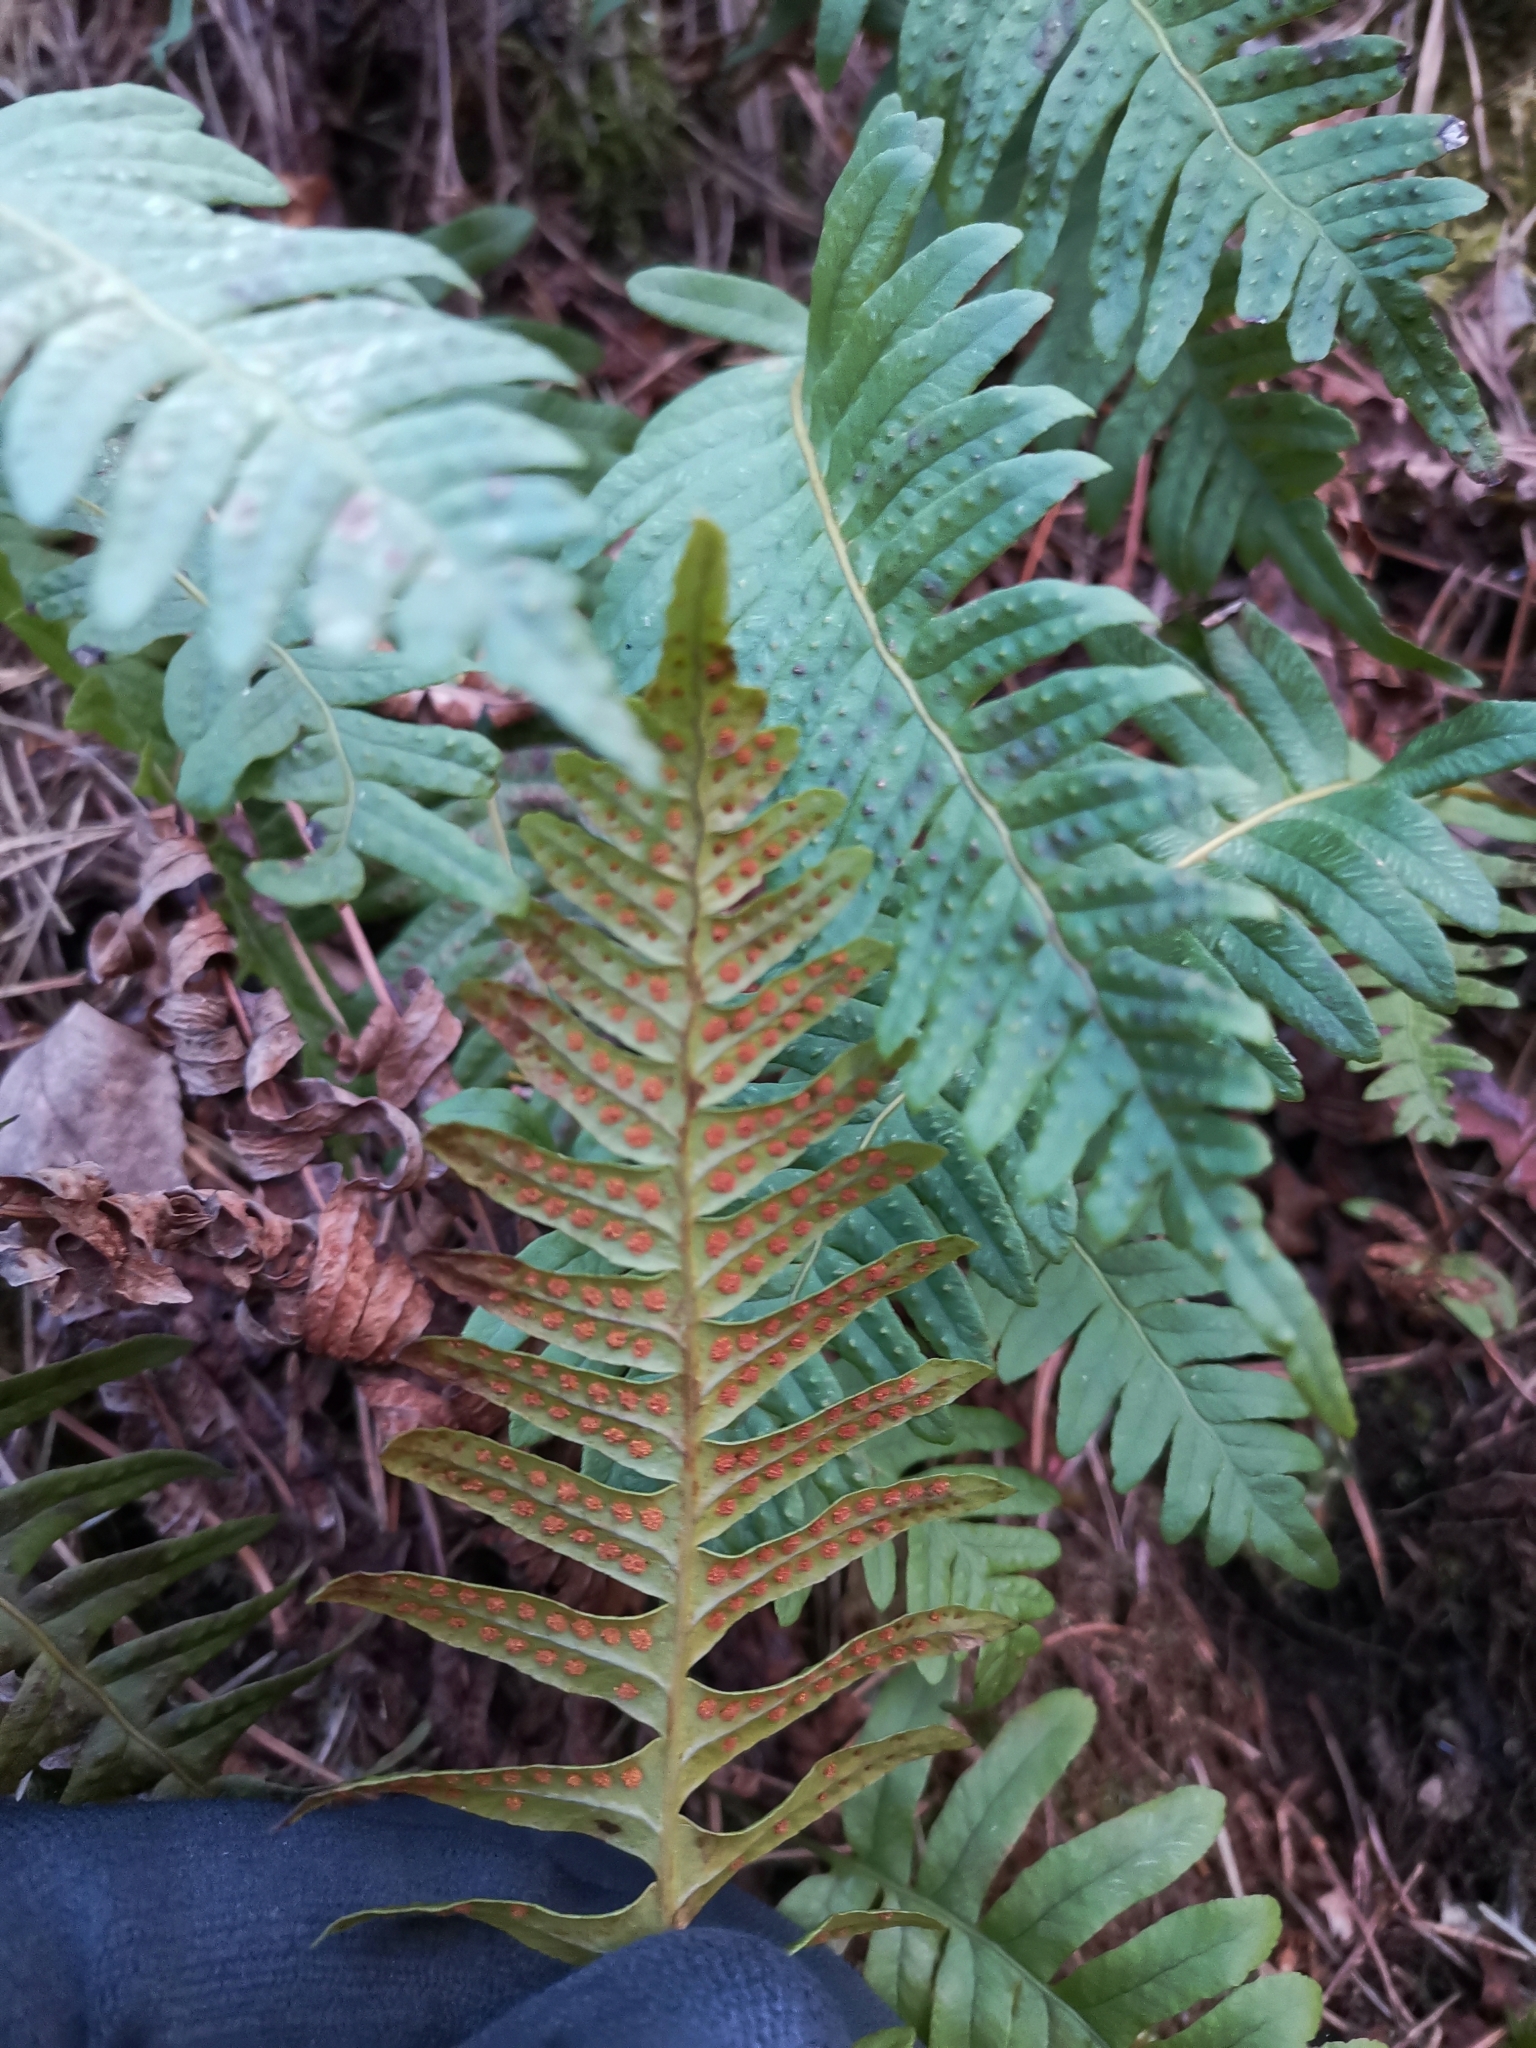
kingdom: Plantae
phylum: Tracheophyta
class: Polypodiopsida
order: Polypodiales
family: Polypodiaceae
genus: Polypodium
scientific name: Polypodium vulgare
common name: Common polypody
